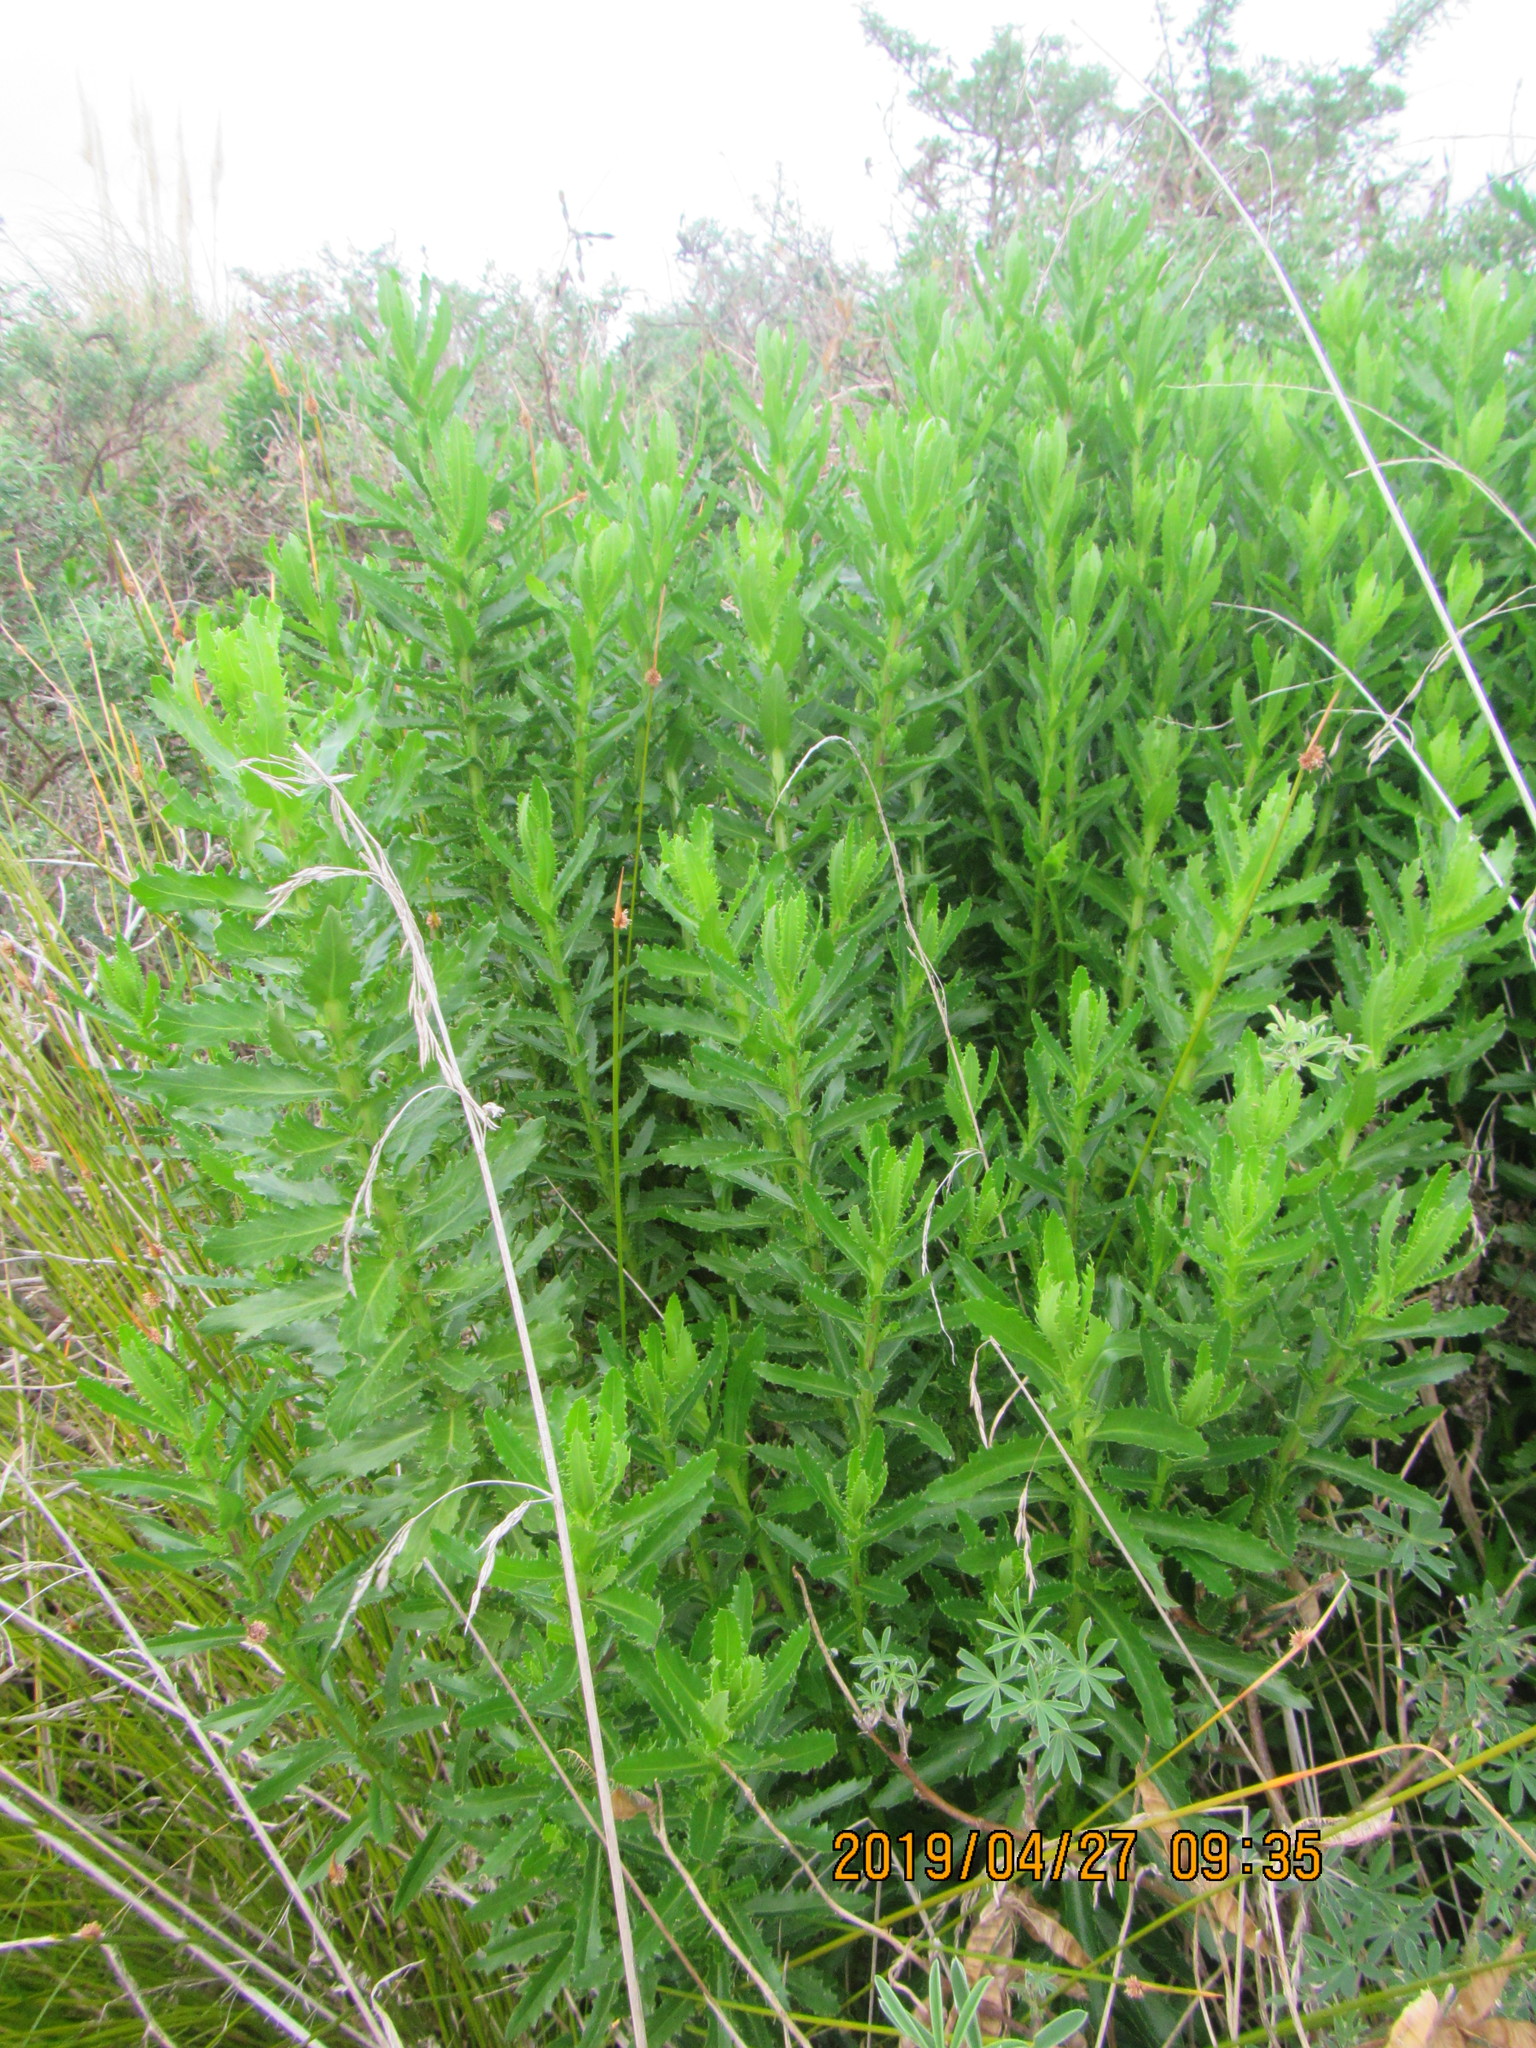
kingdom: Plantae
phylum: Tracheophyta
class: Magnoliopsida
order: Asterales
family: Asteraceae
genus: Senecio
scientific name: Senecio glastifolius
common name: Woad-leaved ragwort
